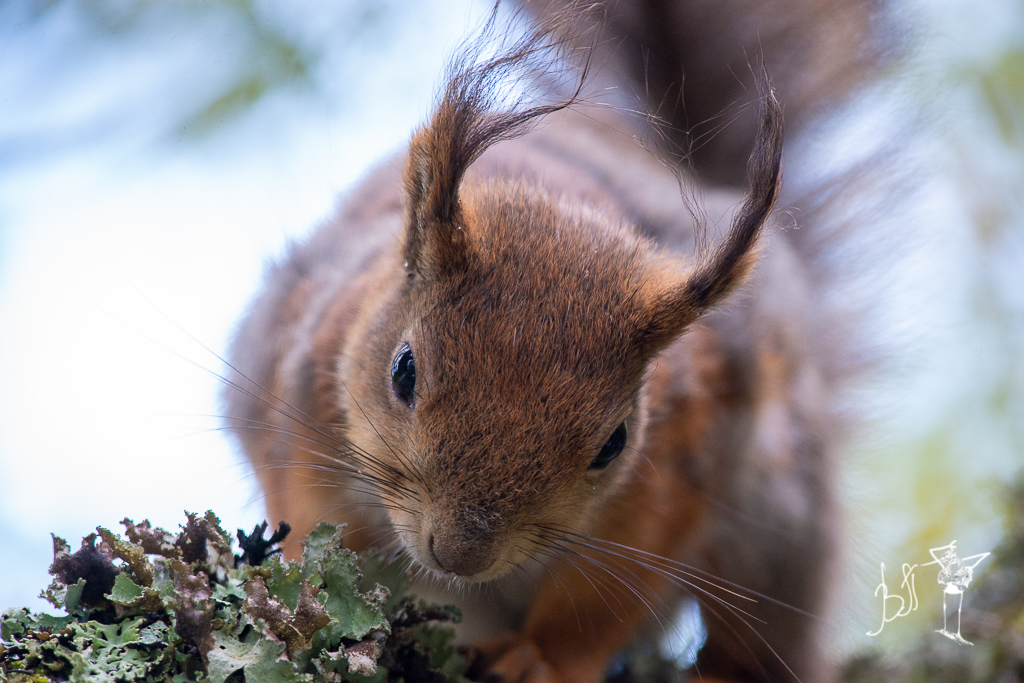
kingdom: Animalia
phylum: Chordata
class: Mammalia
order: Rodentia
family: Sciuridae
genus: Sciurus
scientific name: Sciurus vulgaris
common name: Eurasian red squirrel
